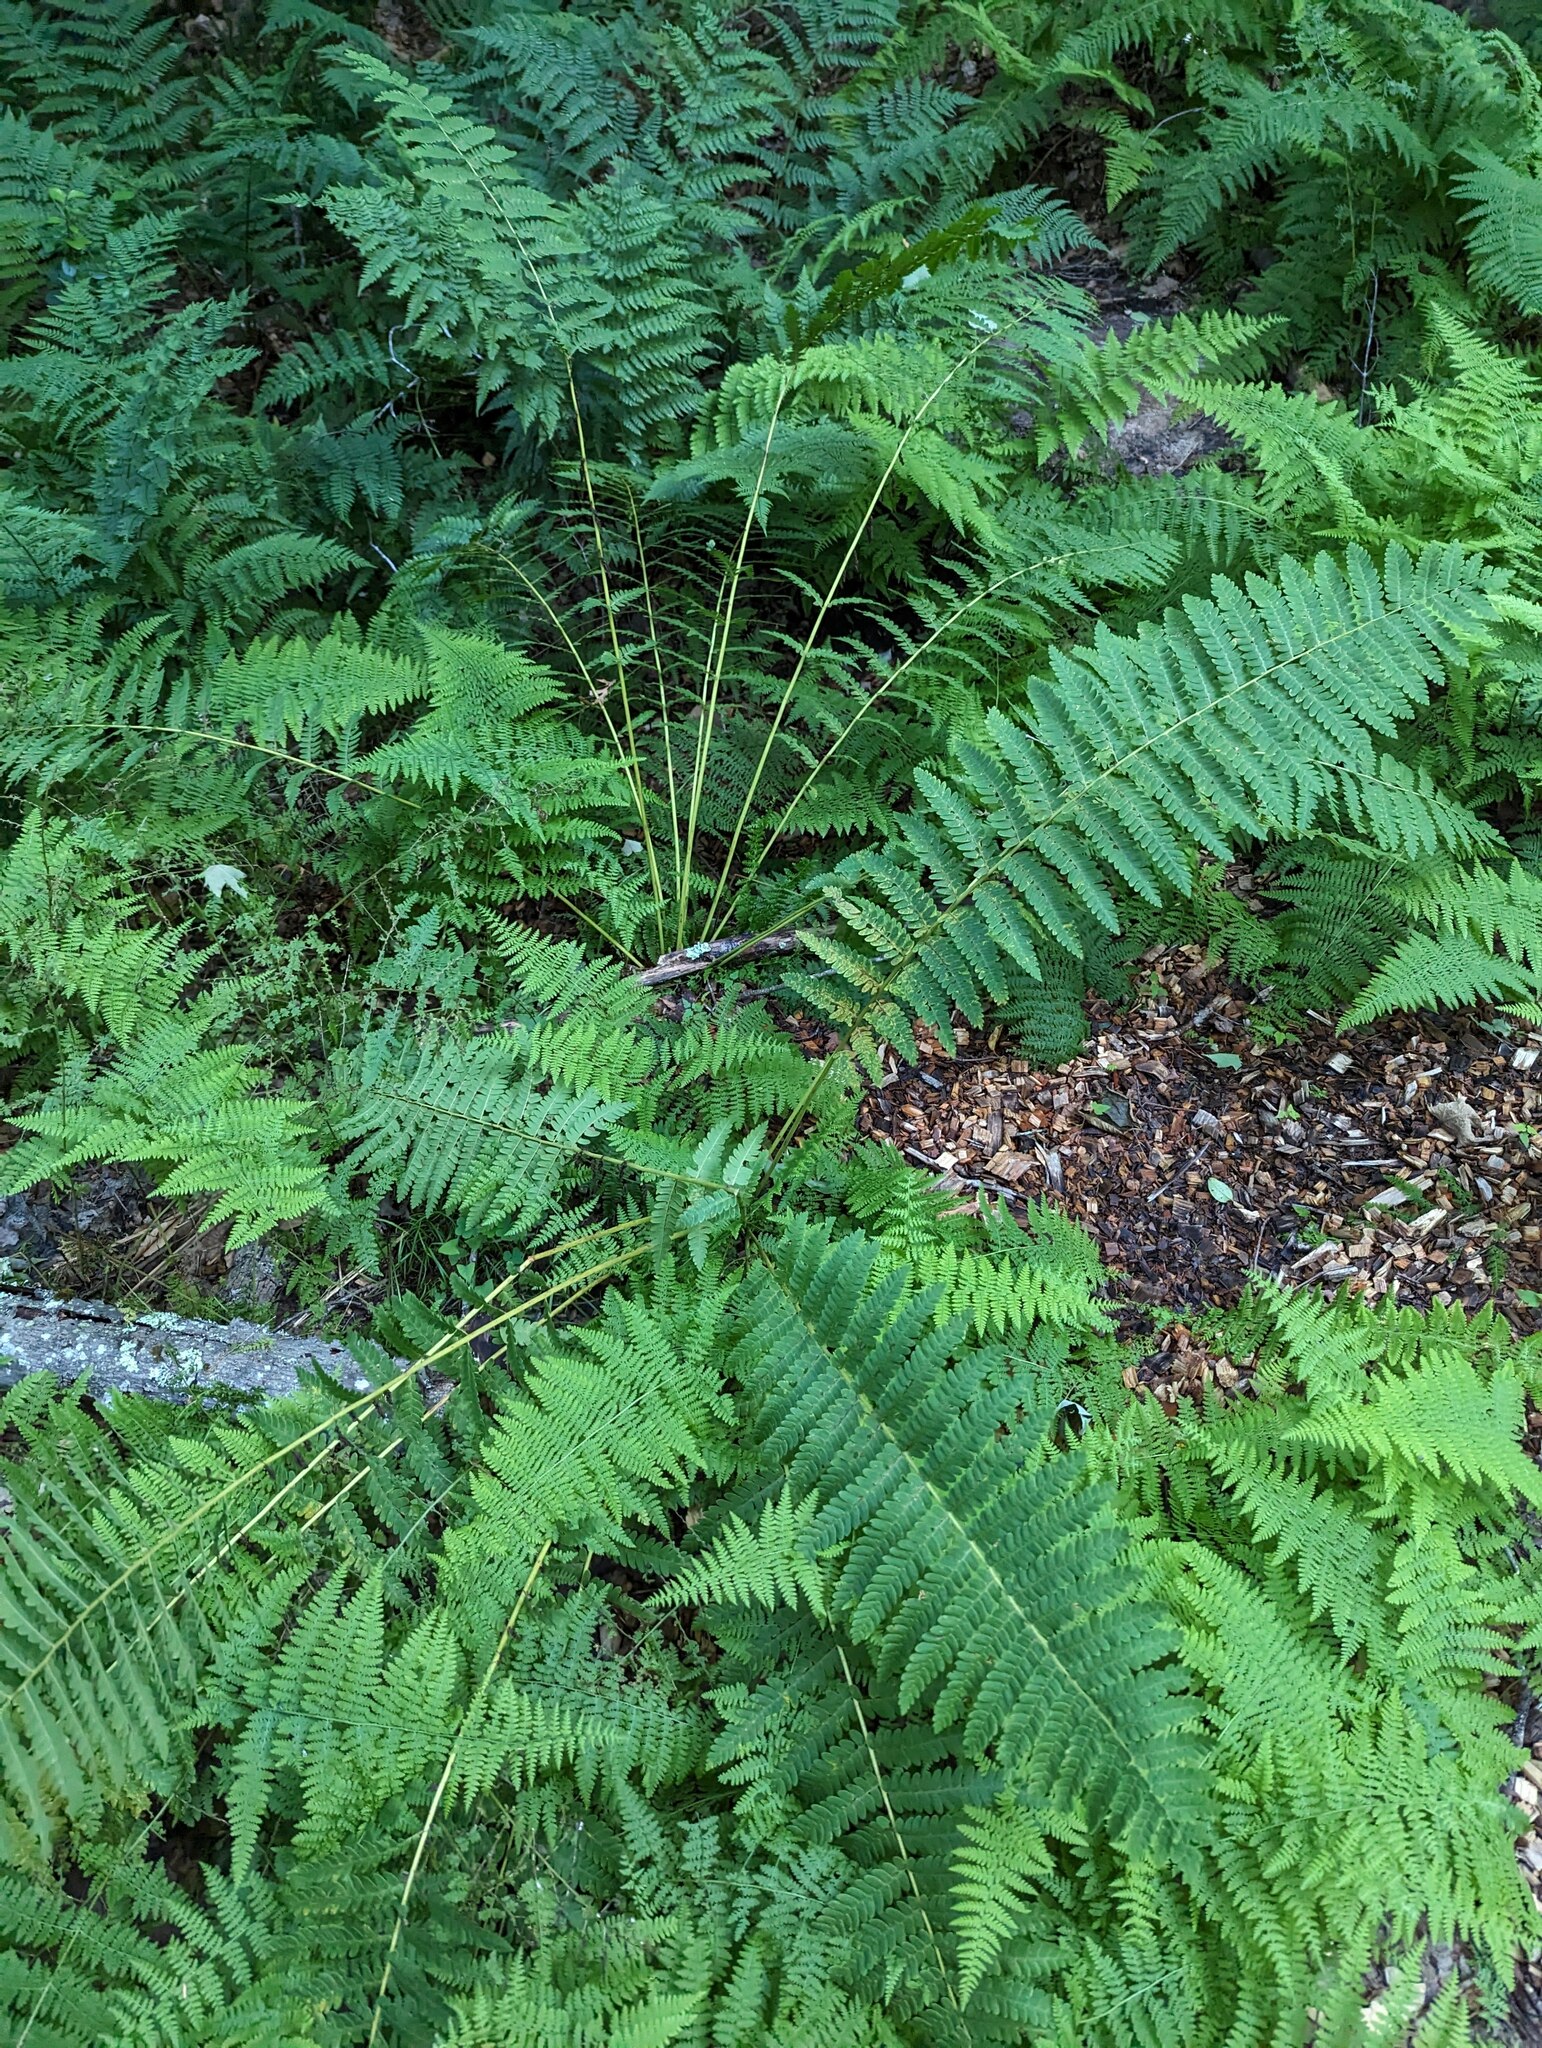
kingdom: Plantae
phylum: Tracheophyta
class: Polypodiopsida
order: Osmundales
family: Osmundaceae
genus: Claytosmunda
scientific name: Claytosmunda claytoniana
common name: Clayton's fern
